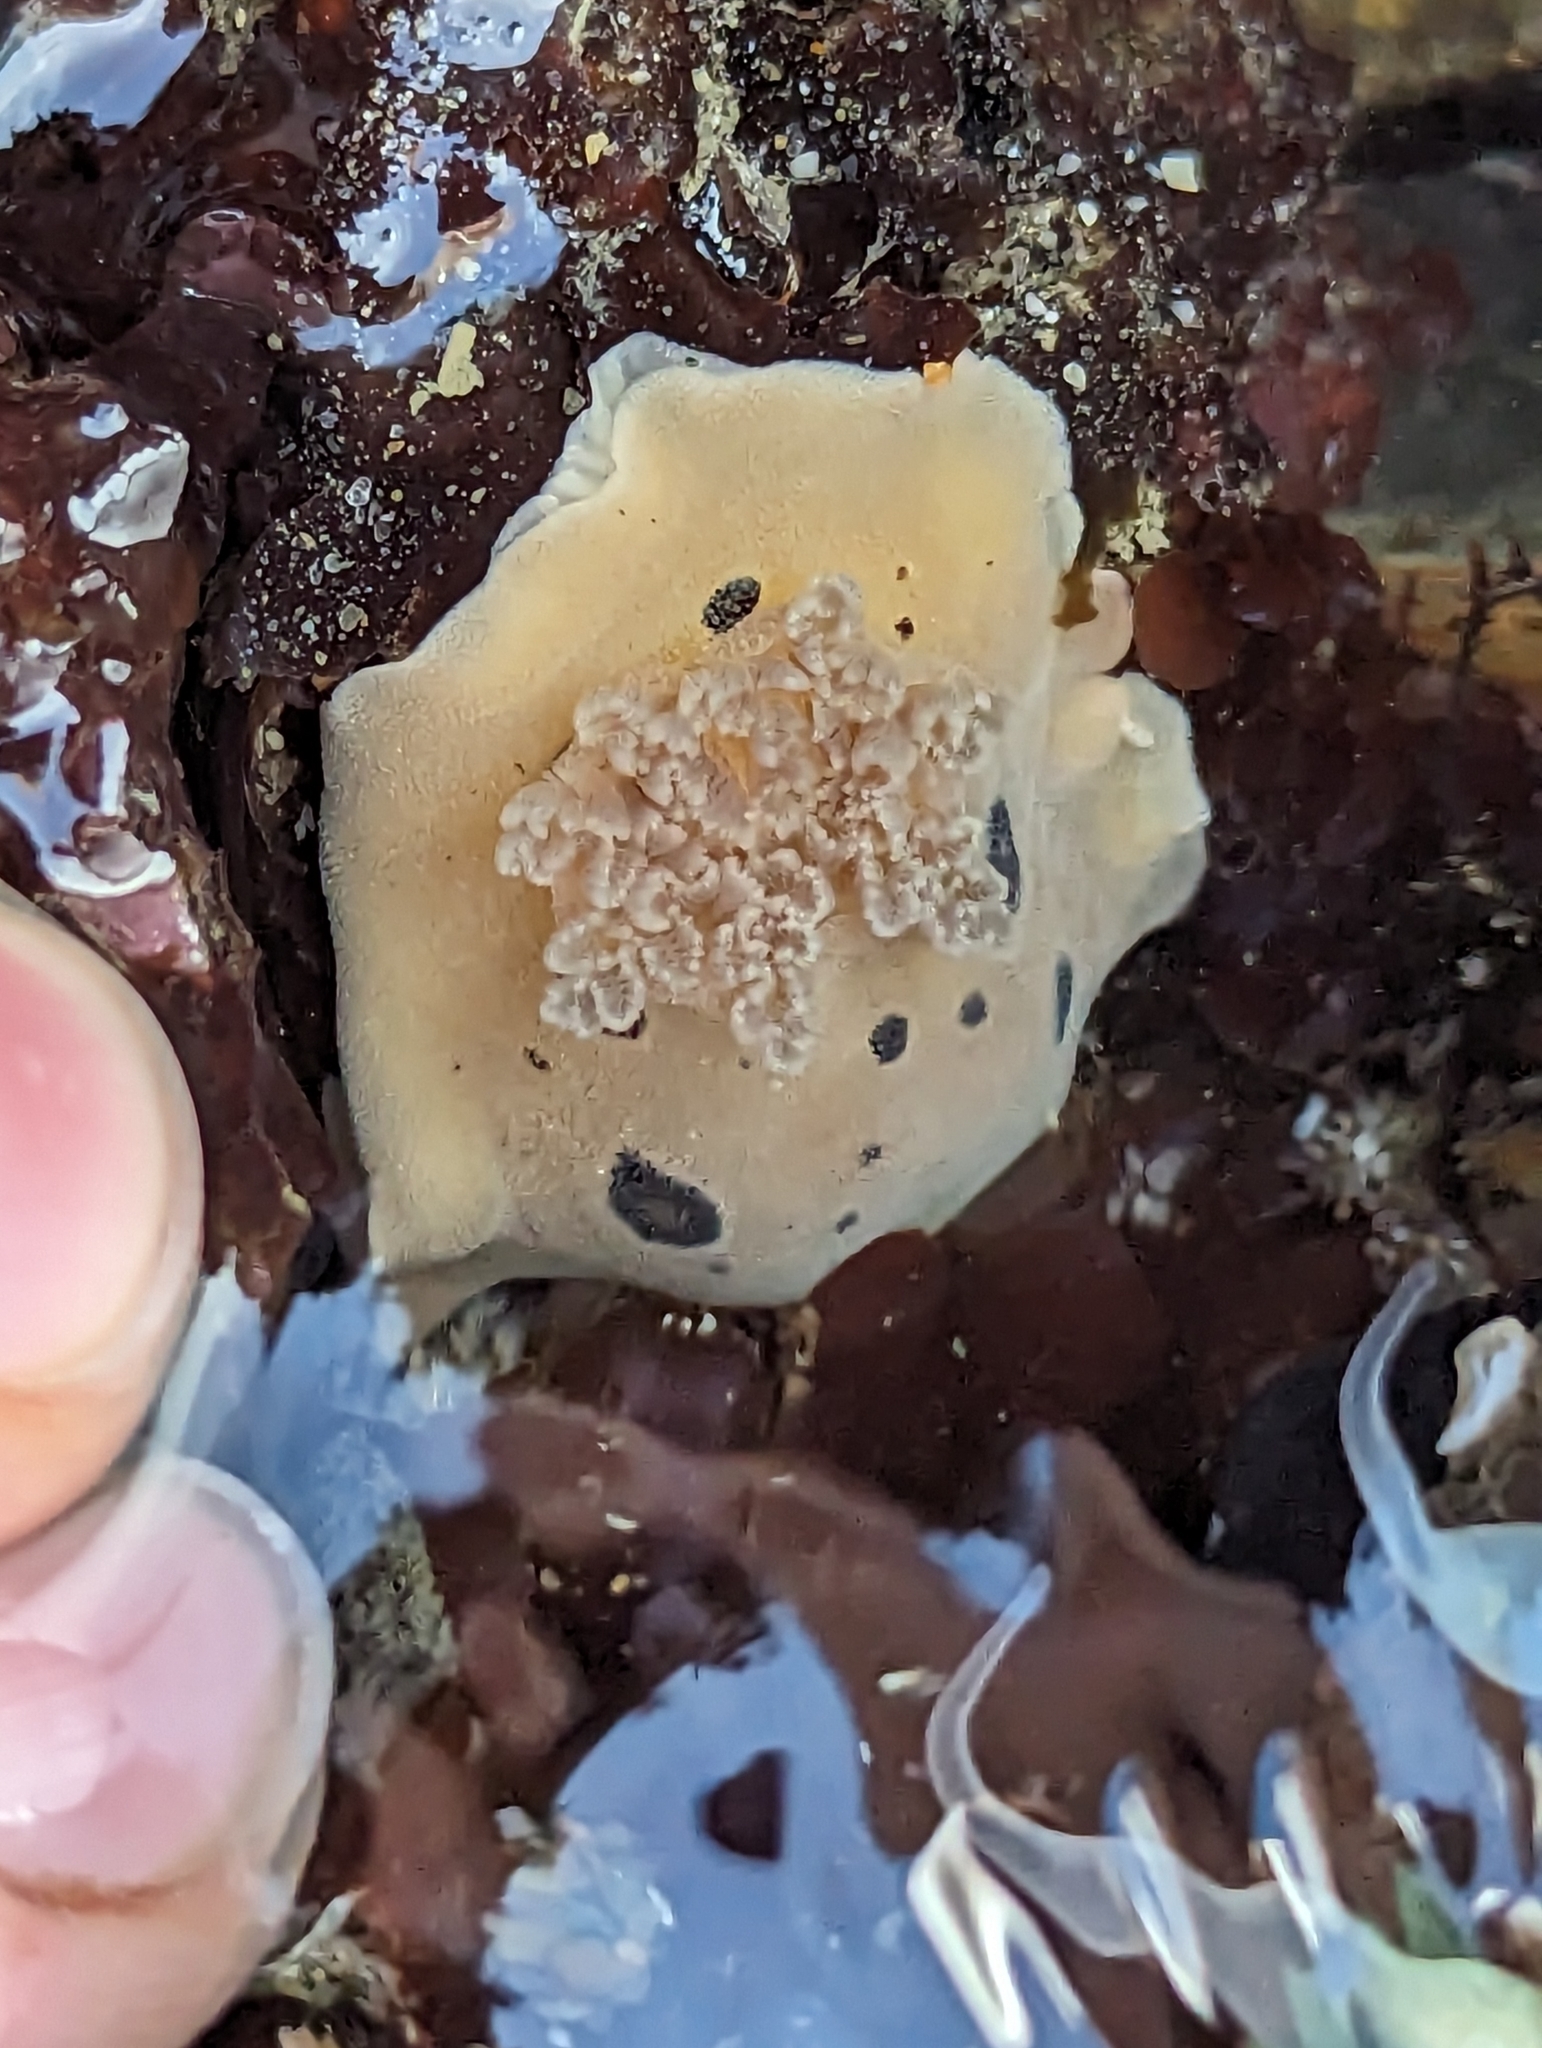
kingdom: Animalia
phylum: Mollusca
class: Gastropoda
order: Nudibranchia
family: Discodorididae
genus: Diaulula
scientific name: Diaulula sandiegensis
